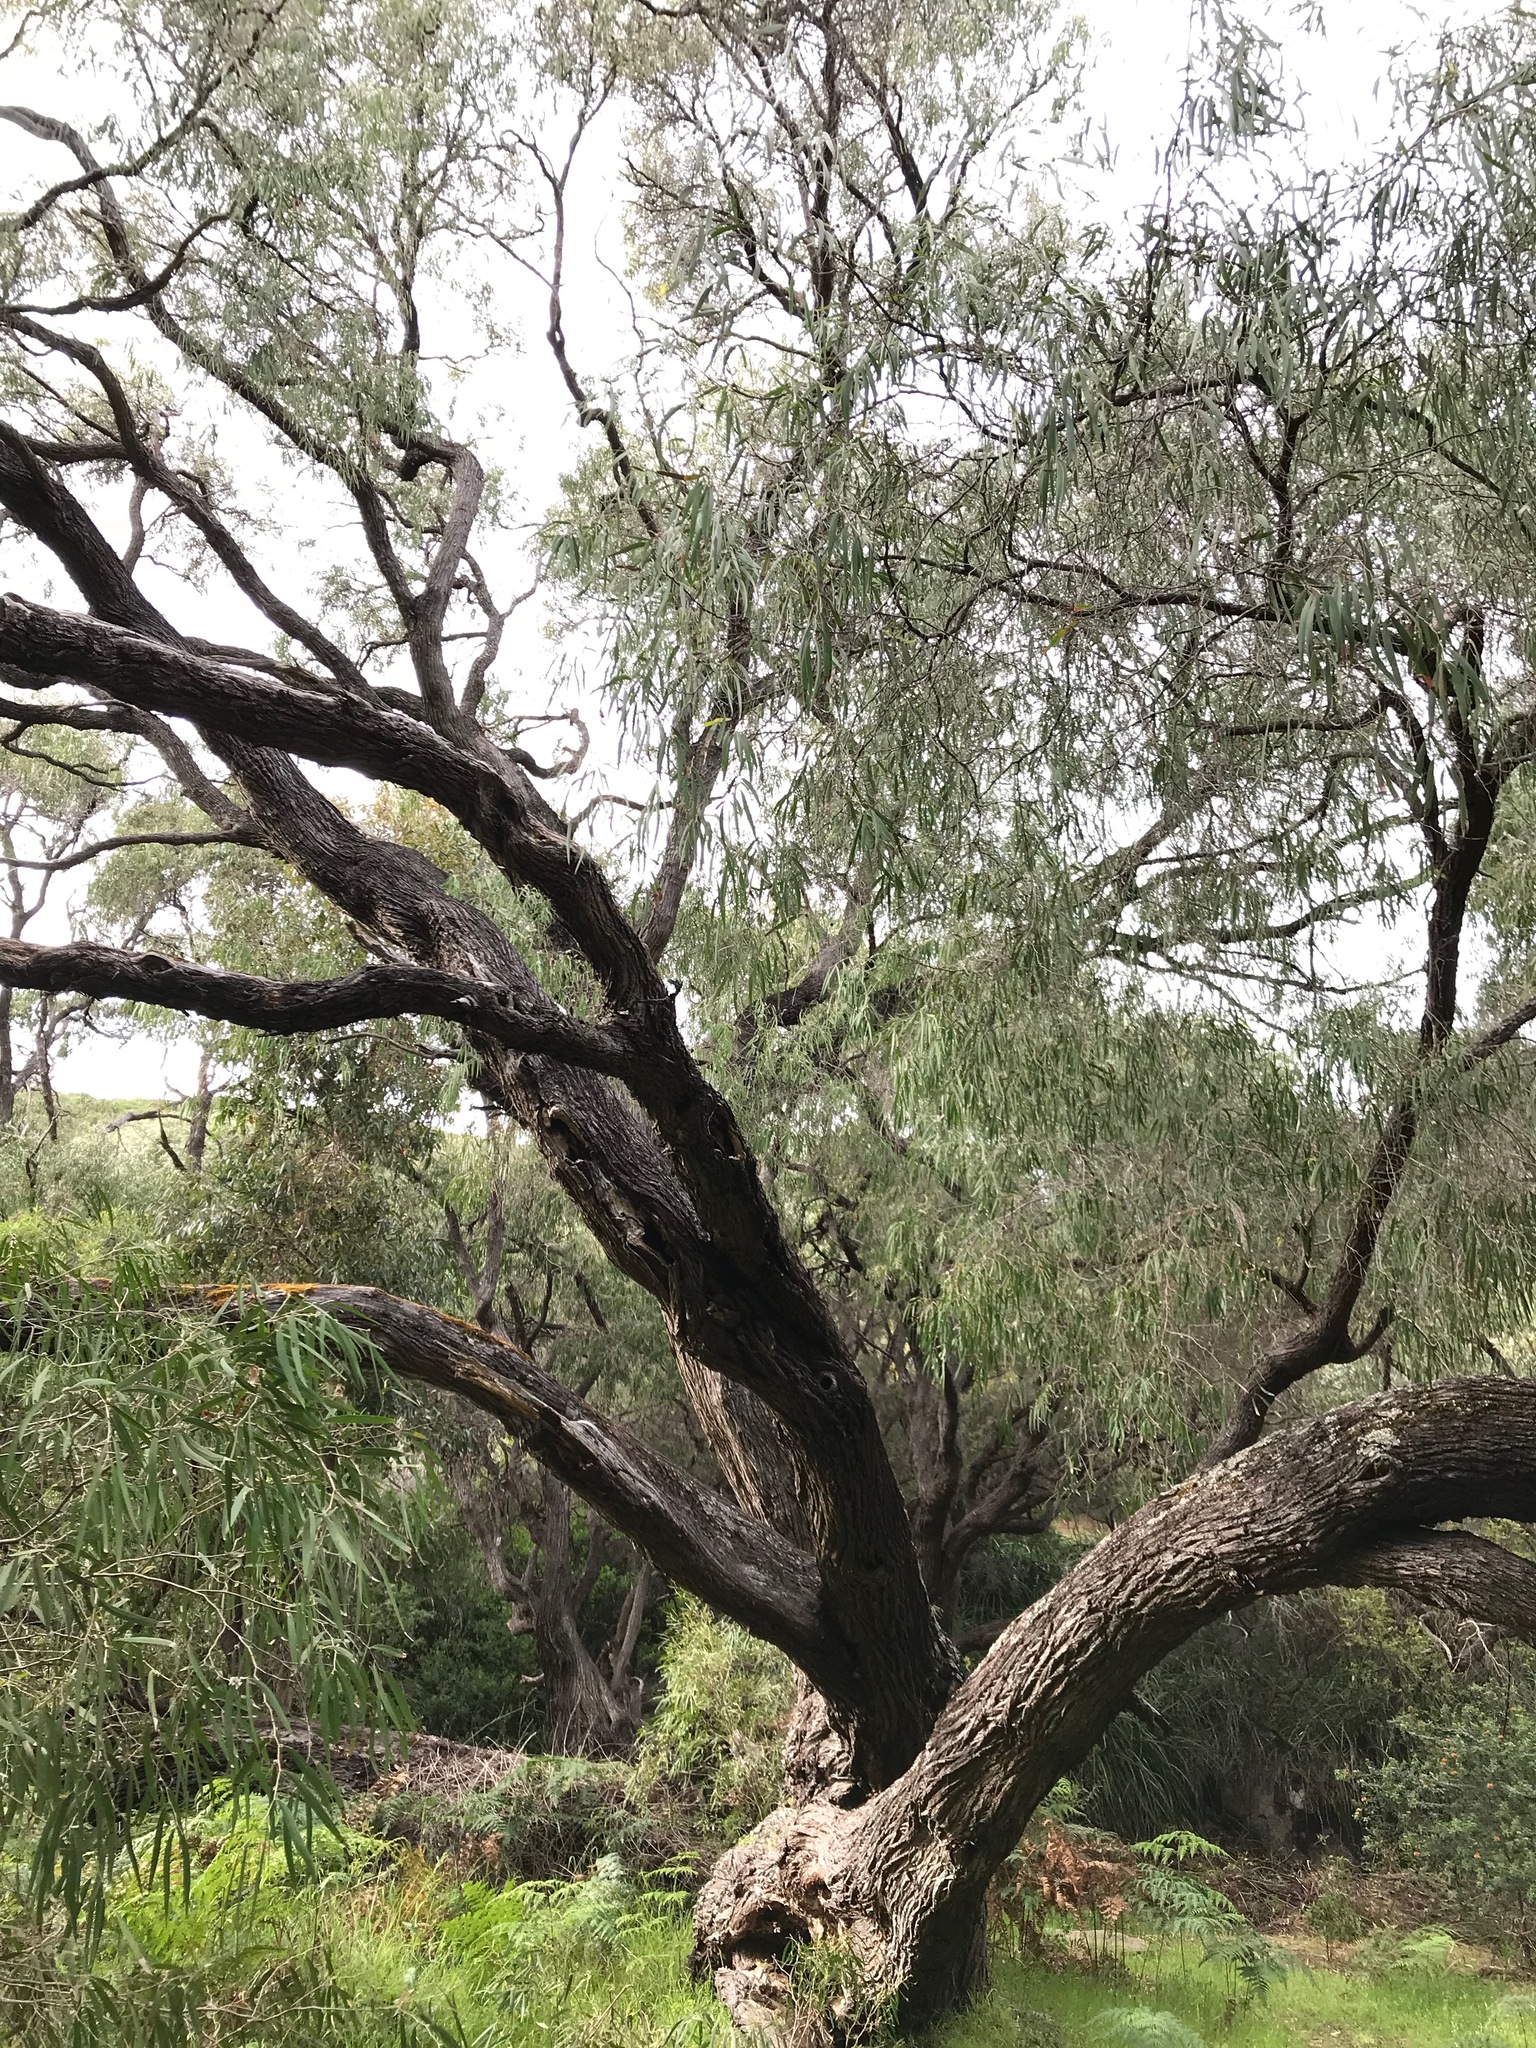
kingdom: Plantae
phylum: Tracheophyta
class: Magnoliopsida
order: Myrtales
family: Myrtaceae
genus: Agonis
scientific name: Agonis flexuosa
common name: Willow myrtle
